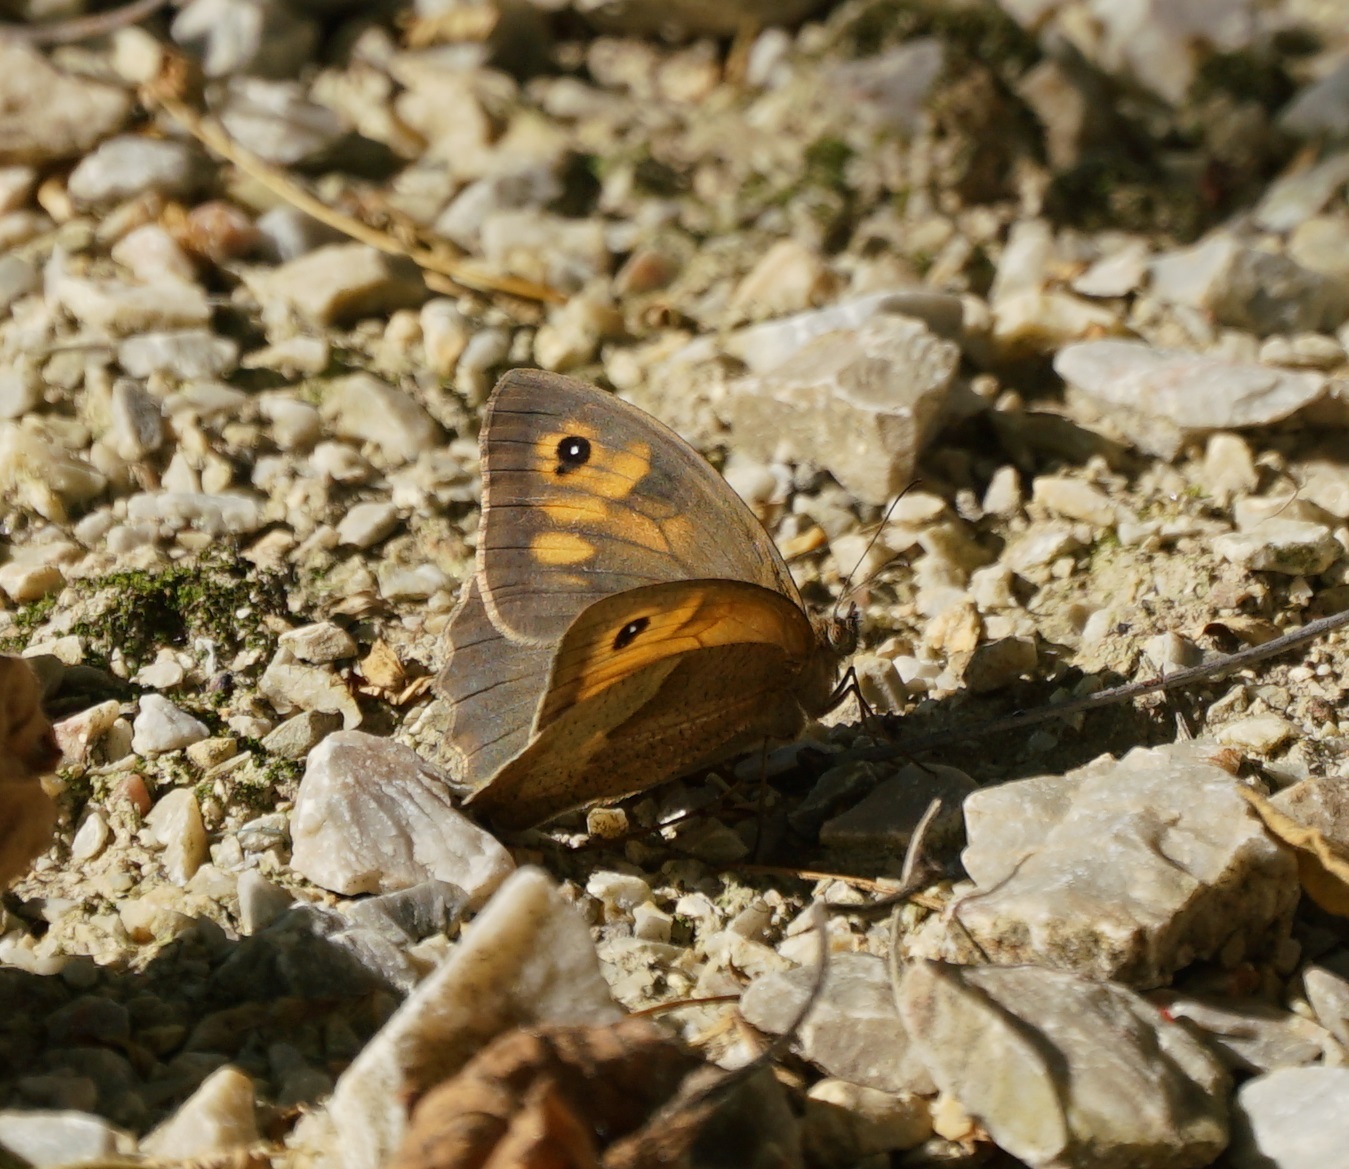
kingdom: Animalia
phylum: Arthropoda
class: Insecta
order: Lepidoptera
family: Nymphalidae
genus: Maniola
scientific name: Maniola jurtina
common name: Meadow brown
